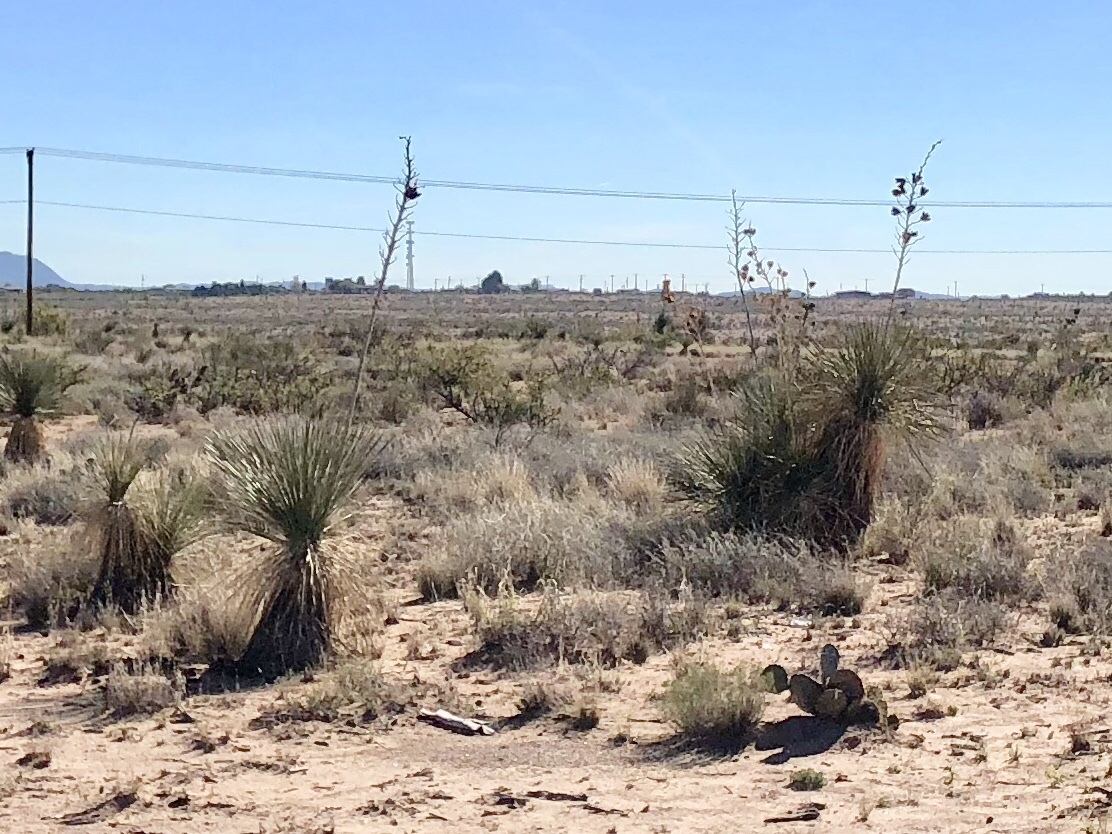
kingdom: Plantae
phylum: Tracheophyta
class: Liliopsida
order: Asparagales
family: Asparagaceae
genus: Yucca
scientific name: Yucca elata
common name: Palmella
